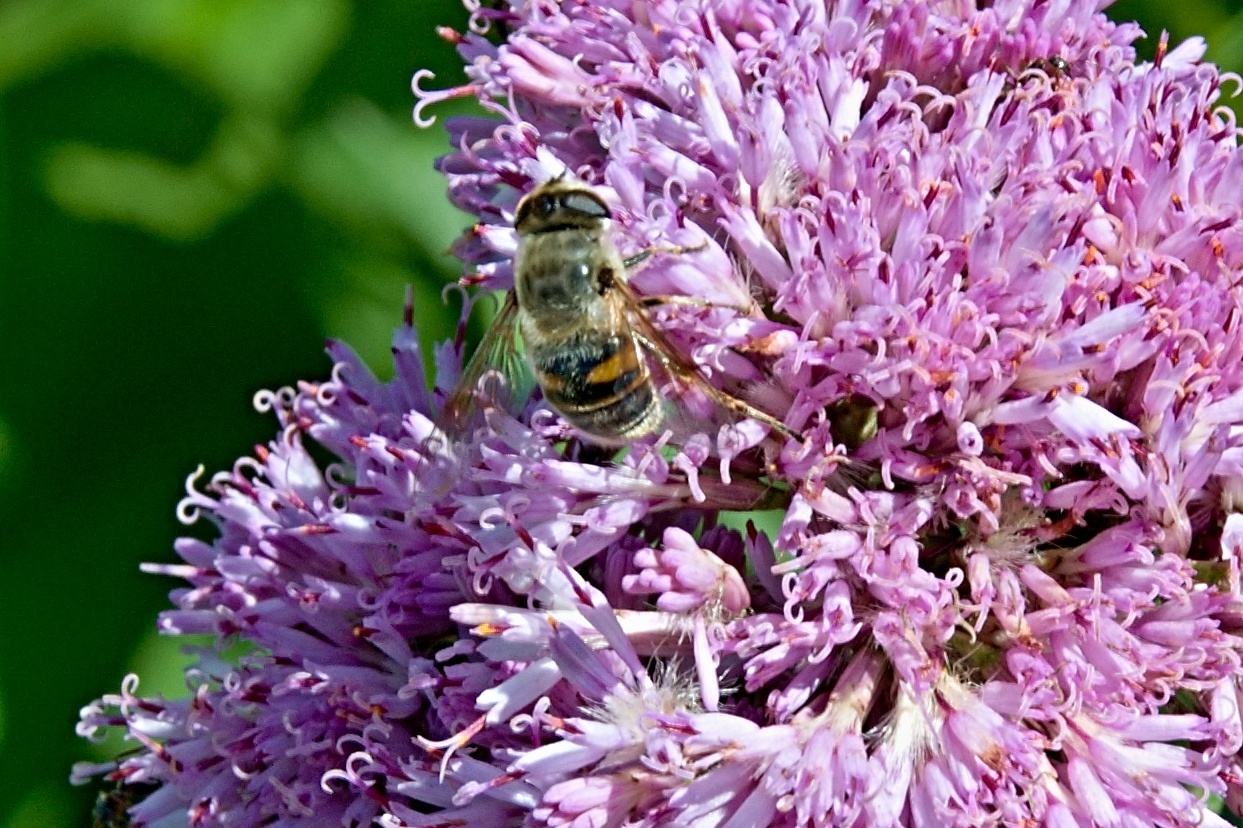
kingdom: Animalia
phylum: Arthropoda
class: Insecta
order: Diptera
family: Syrphidae
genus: Eristalis
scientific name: Eristalis tenax
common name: Drone fly
